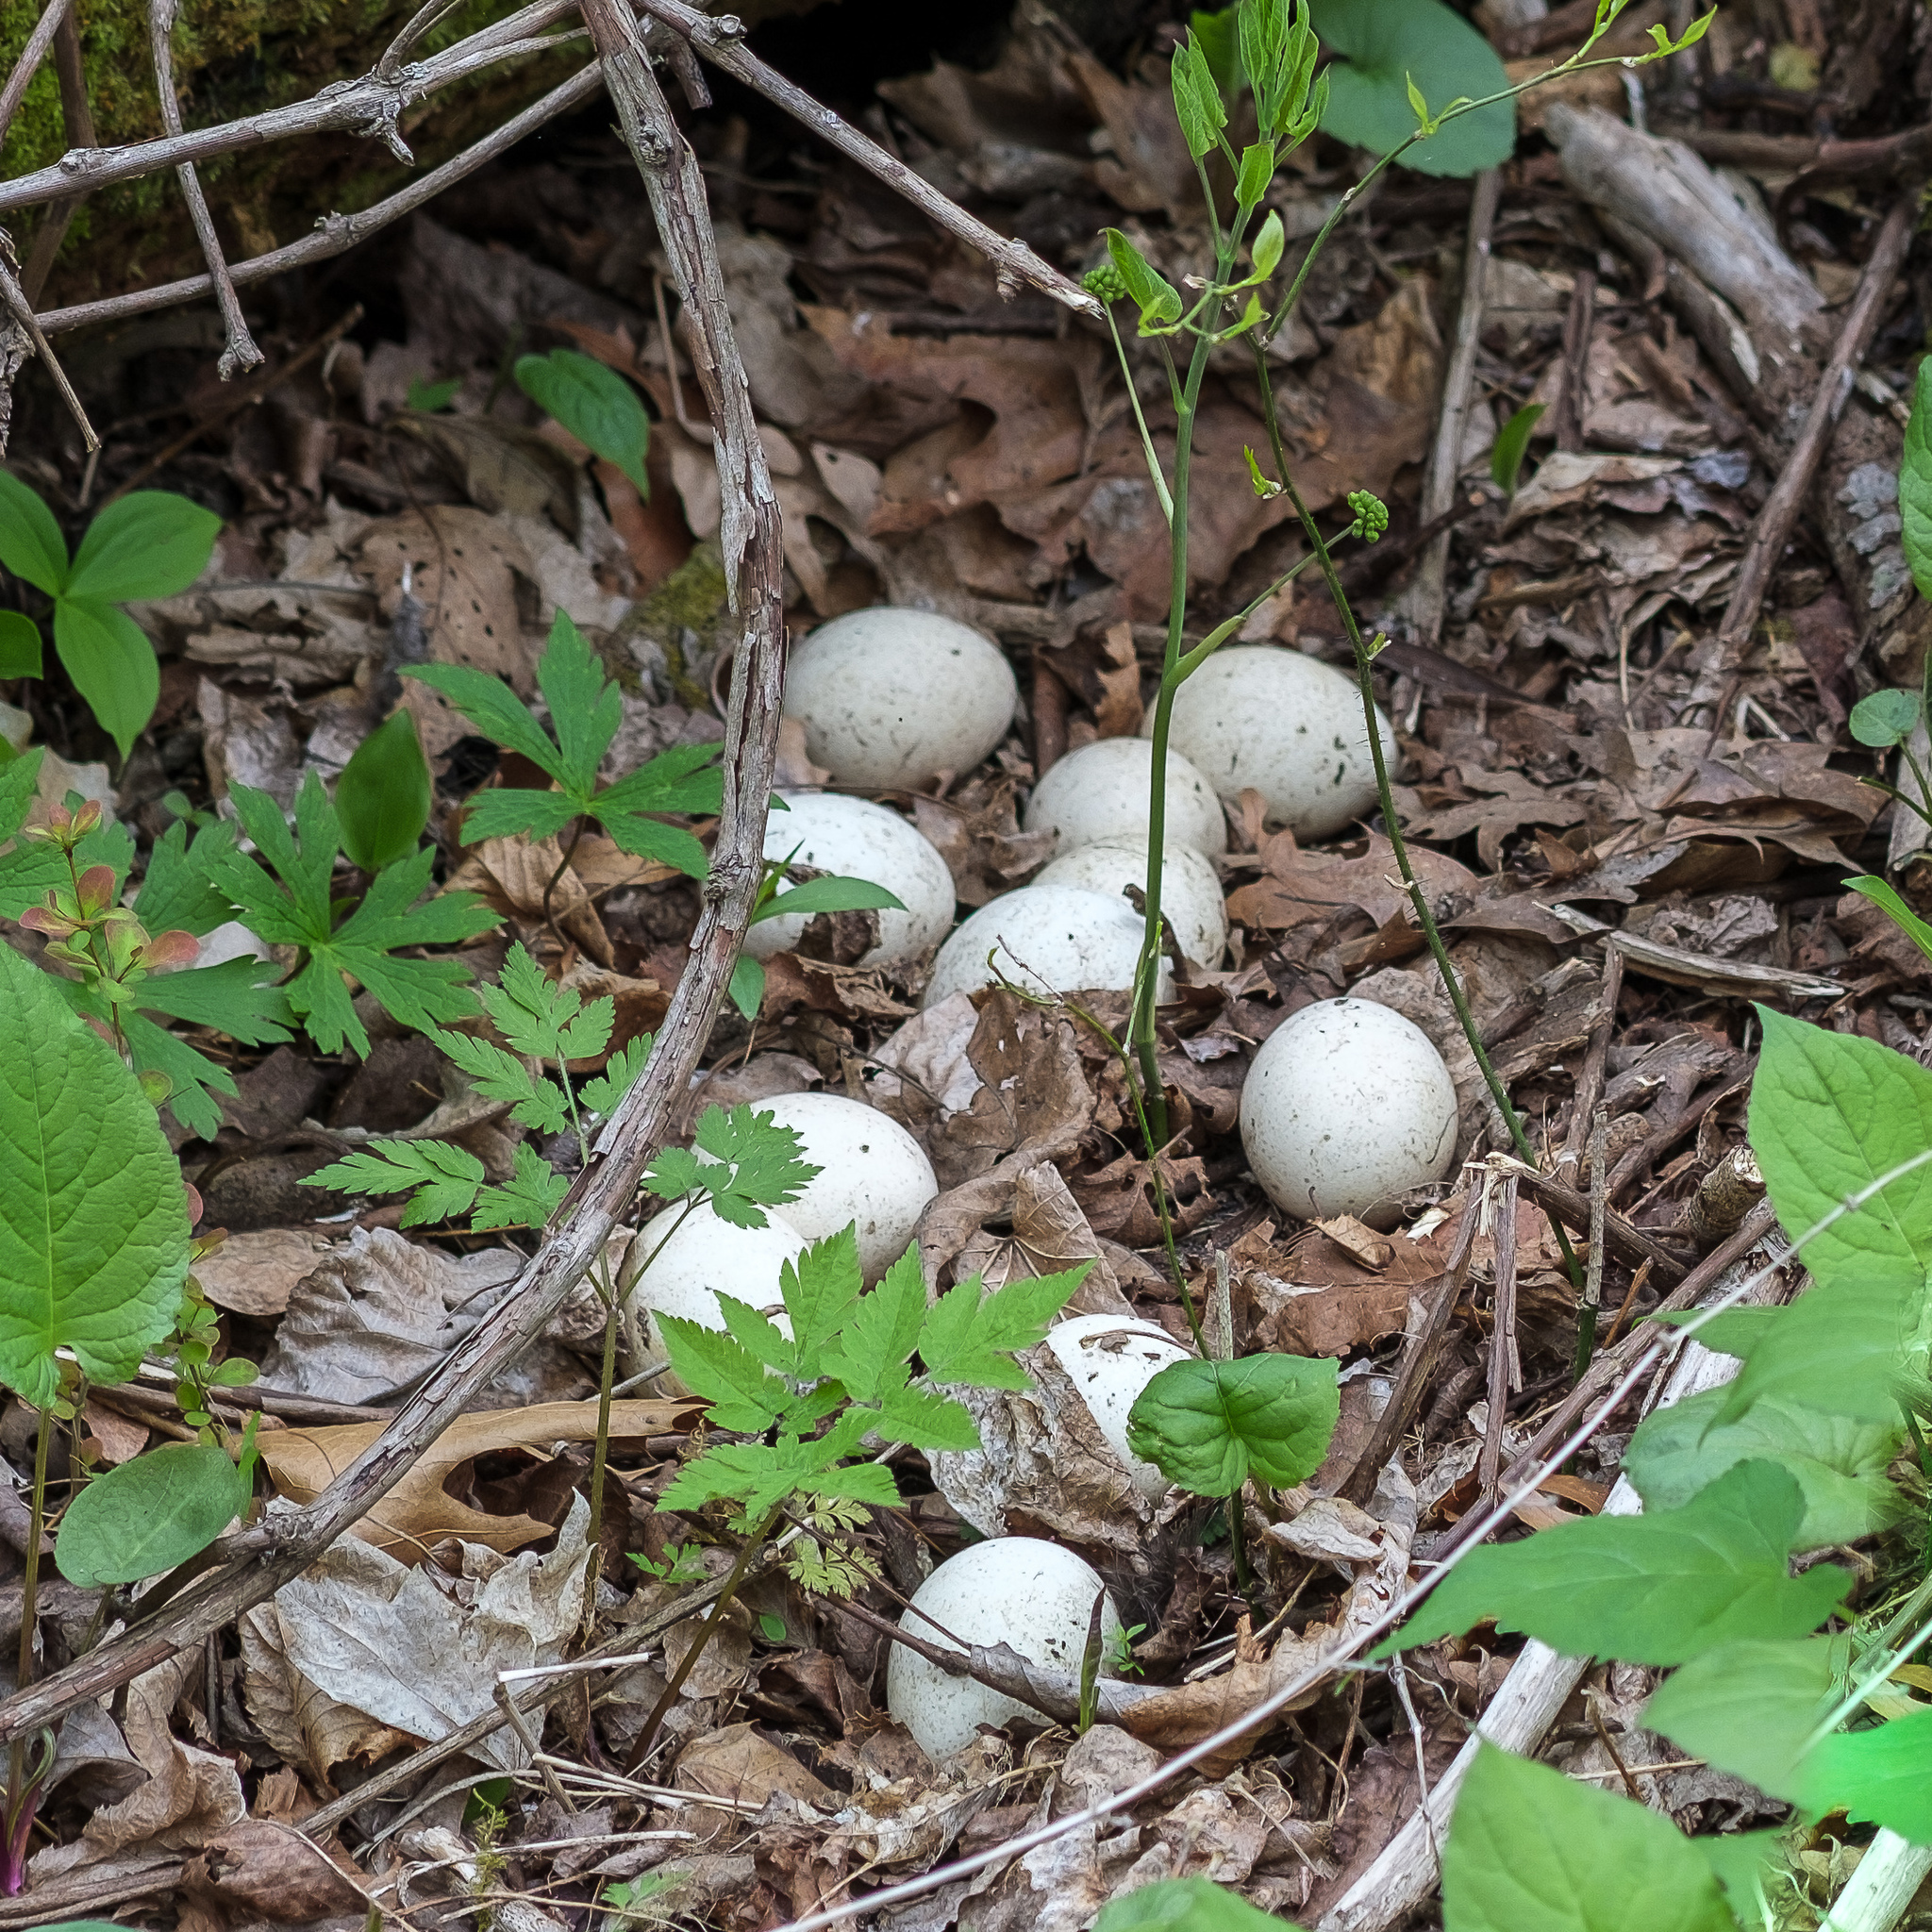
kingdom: Animalia
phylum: Chordata
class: Aves
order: Galliformes
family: Phasianidae
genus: Meleagris
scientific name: Meleagris gallopavo
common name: Wild turkey
